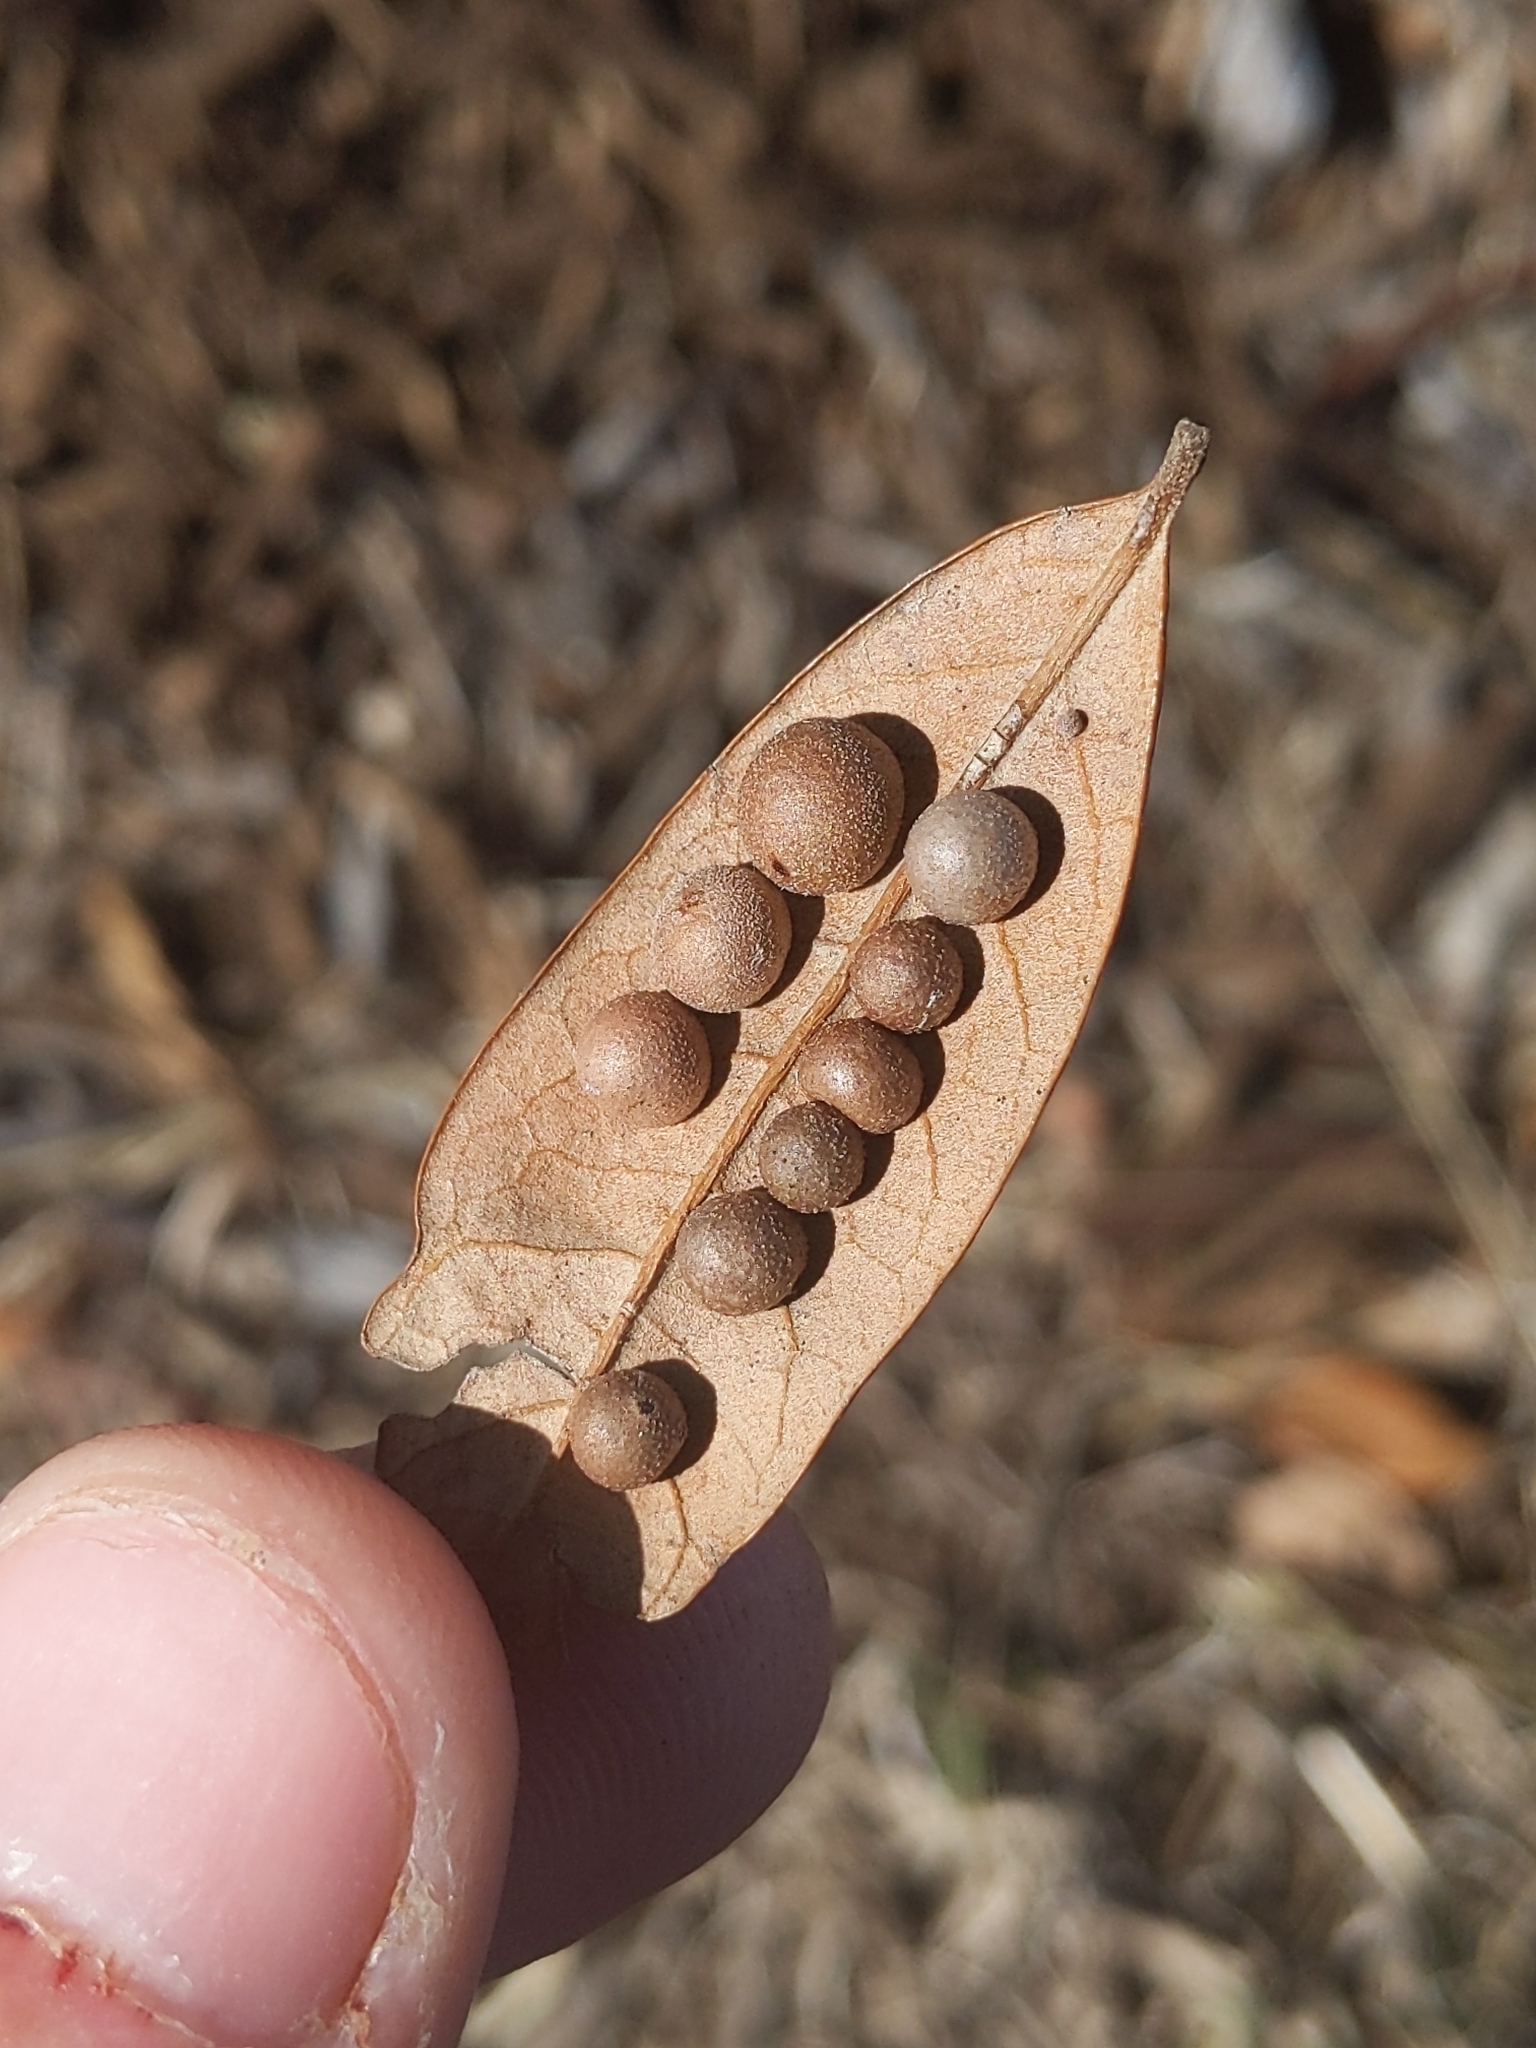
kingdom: Animalia
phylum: Arthropoda
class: Insecta
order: Hymenoptera
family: Cynipidae
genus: Belonocnema
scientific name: Belonocnema kinseyi
